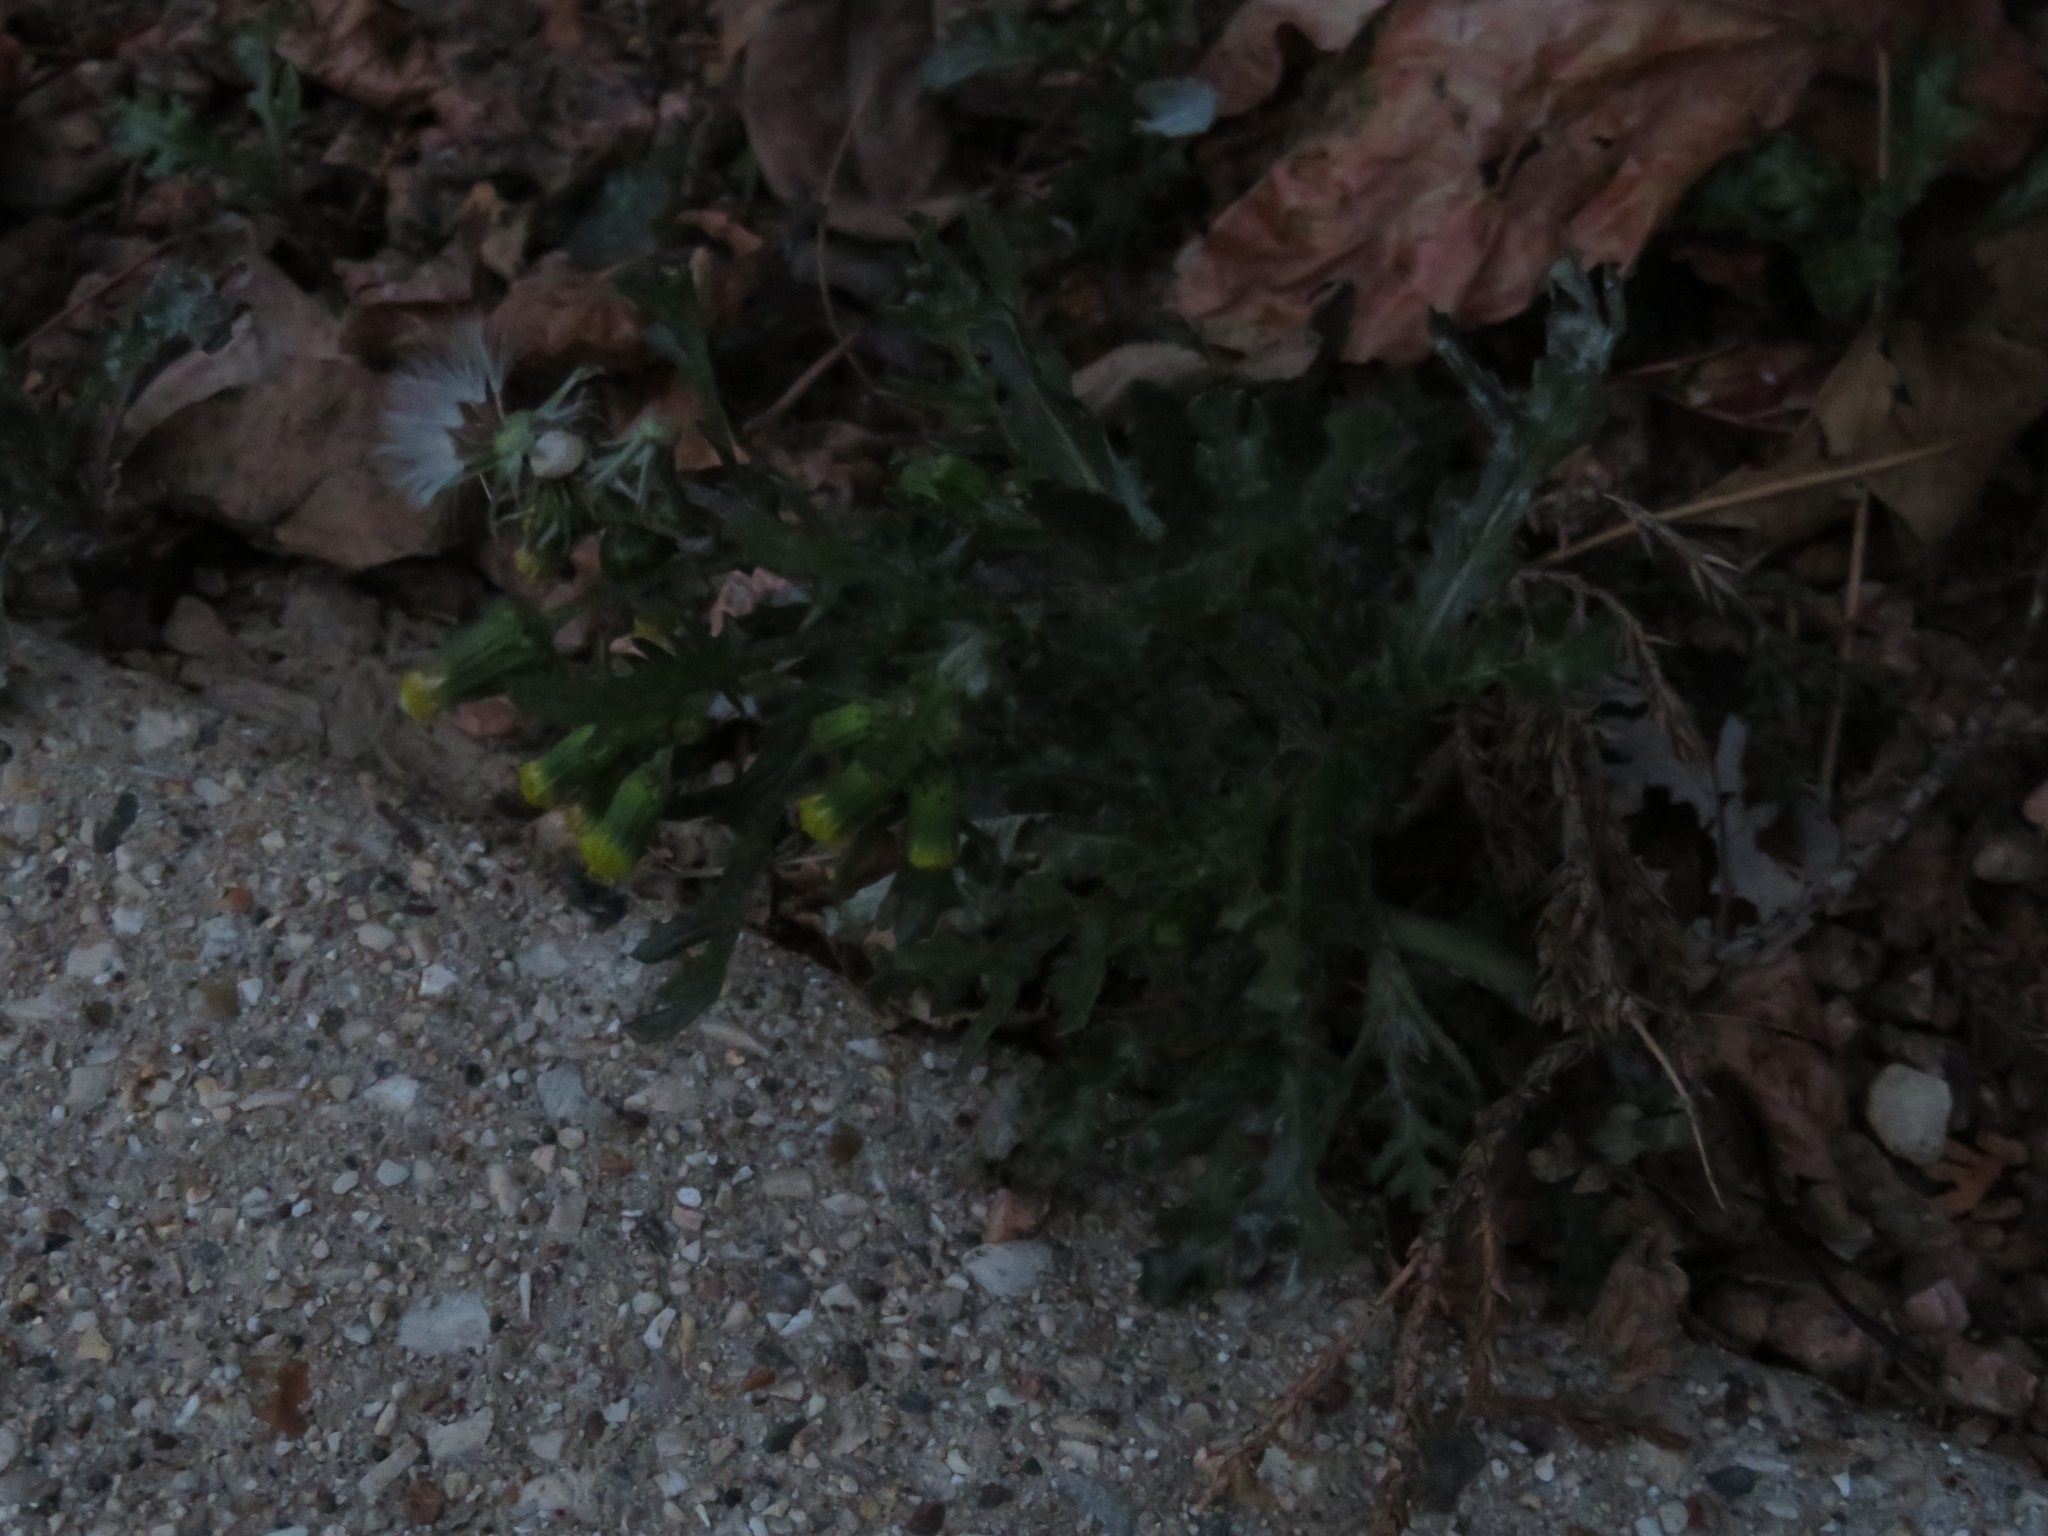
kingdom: Plantae
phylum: Tracheophyta
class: Magnoliopsida
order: Asterales
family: Asteraceae
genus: Senecio
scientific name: Senecio vulgaris
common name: Old-man-in-the-spring
